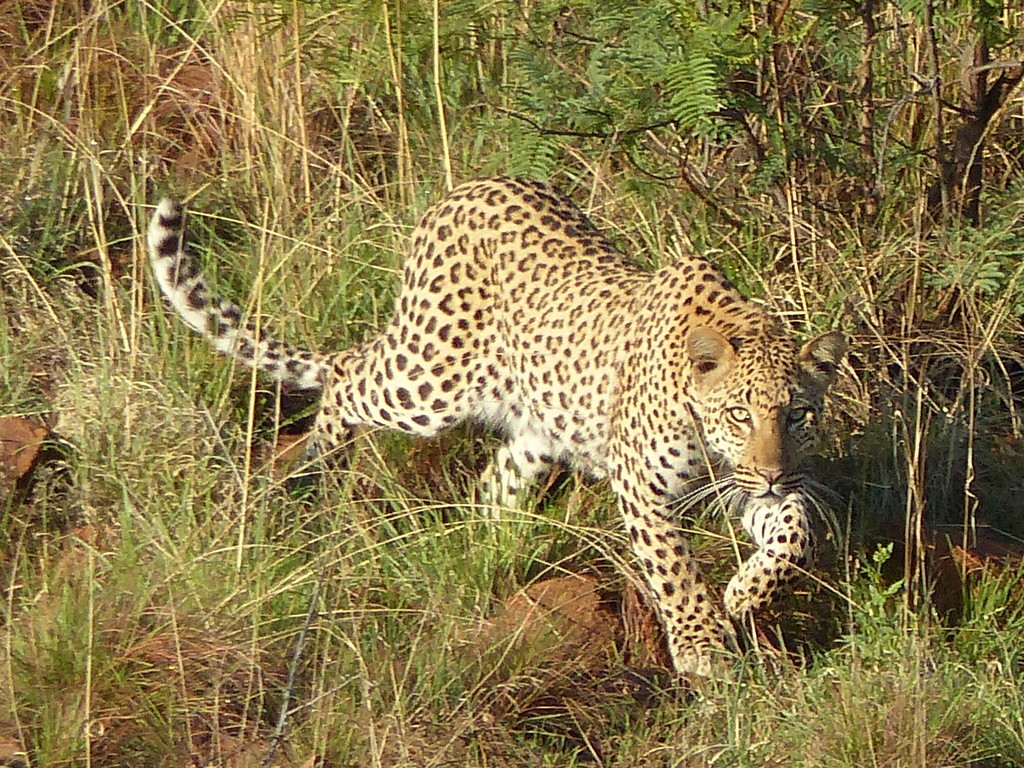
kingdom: Animalia
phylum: Chordata
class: Mammalia
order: Carnivora
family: Felidae
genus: Panthera
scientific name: Panthera pardus
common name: Leopard
